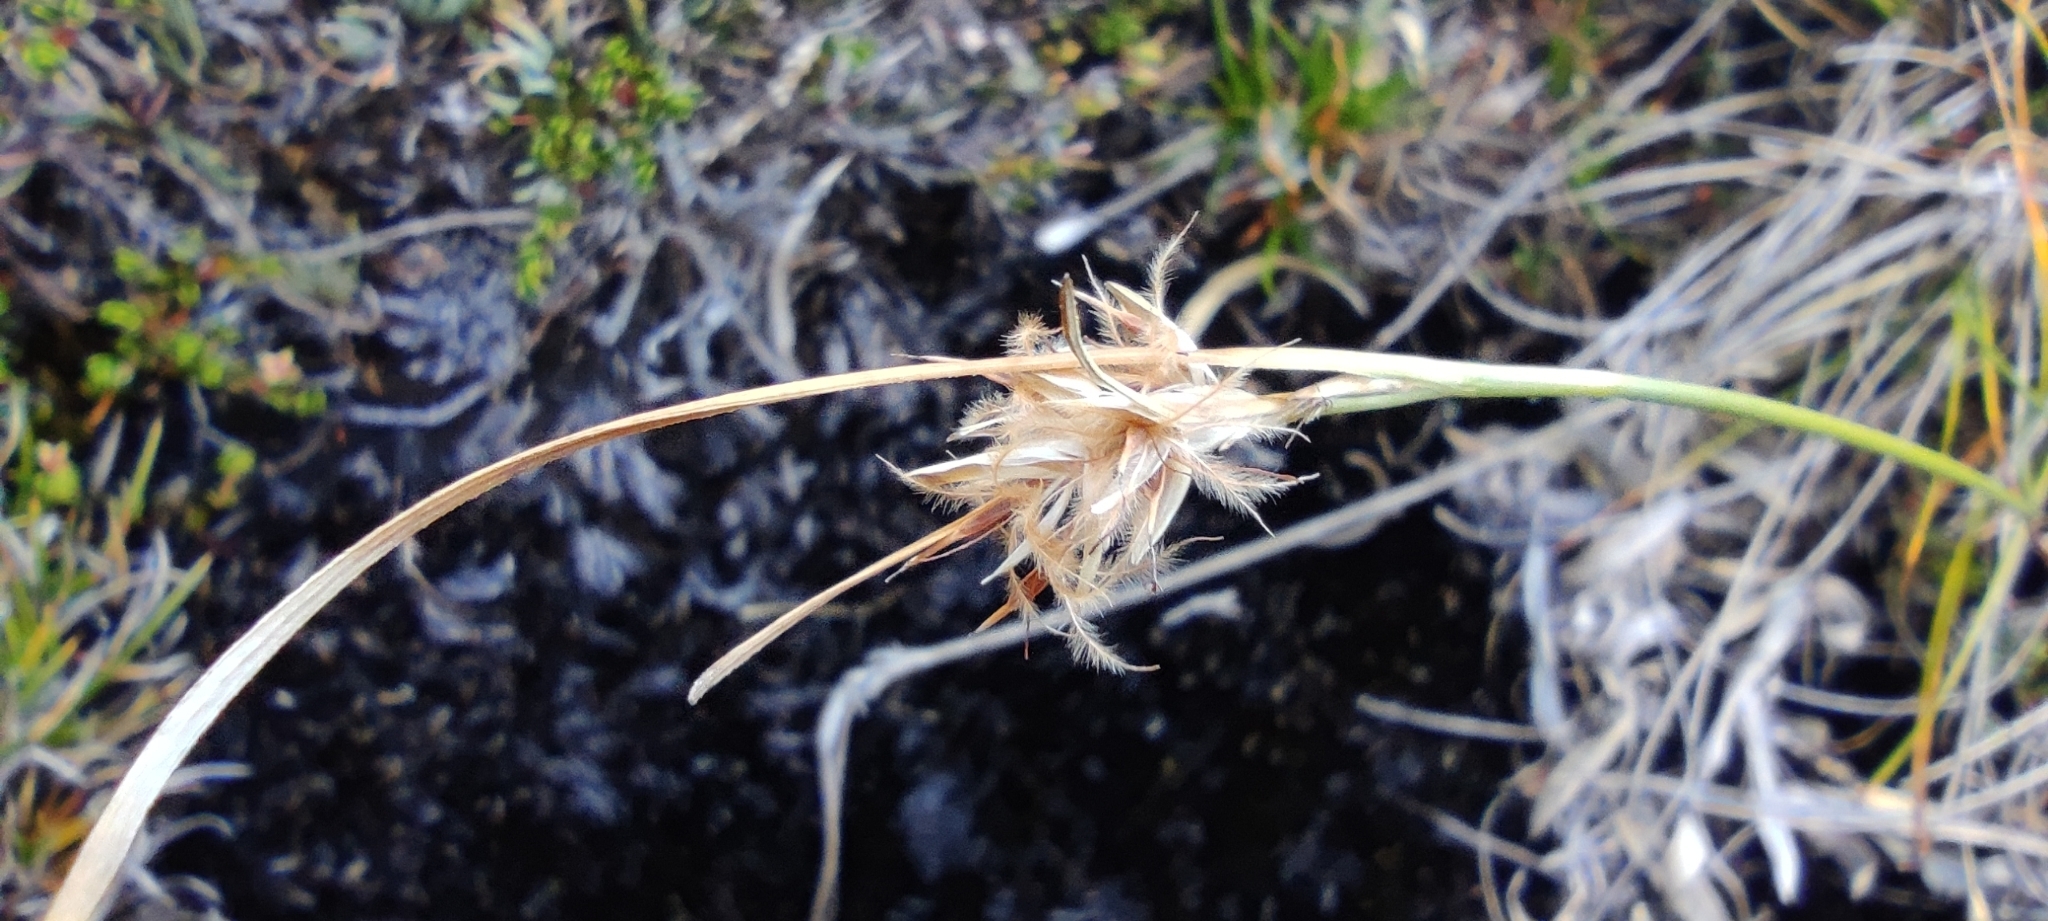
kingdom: Plantae
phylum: Tracheophyta
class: Liliopsida
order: Poales
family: Cyperaceae
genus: Carpha
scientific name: Carpha schoenoides
